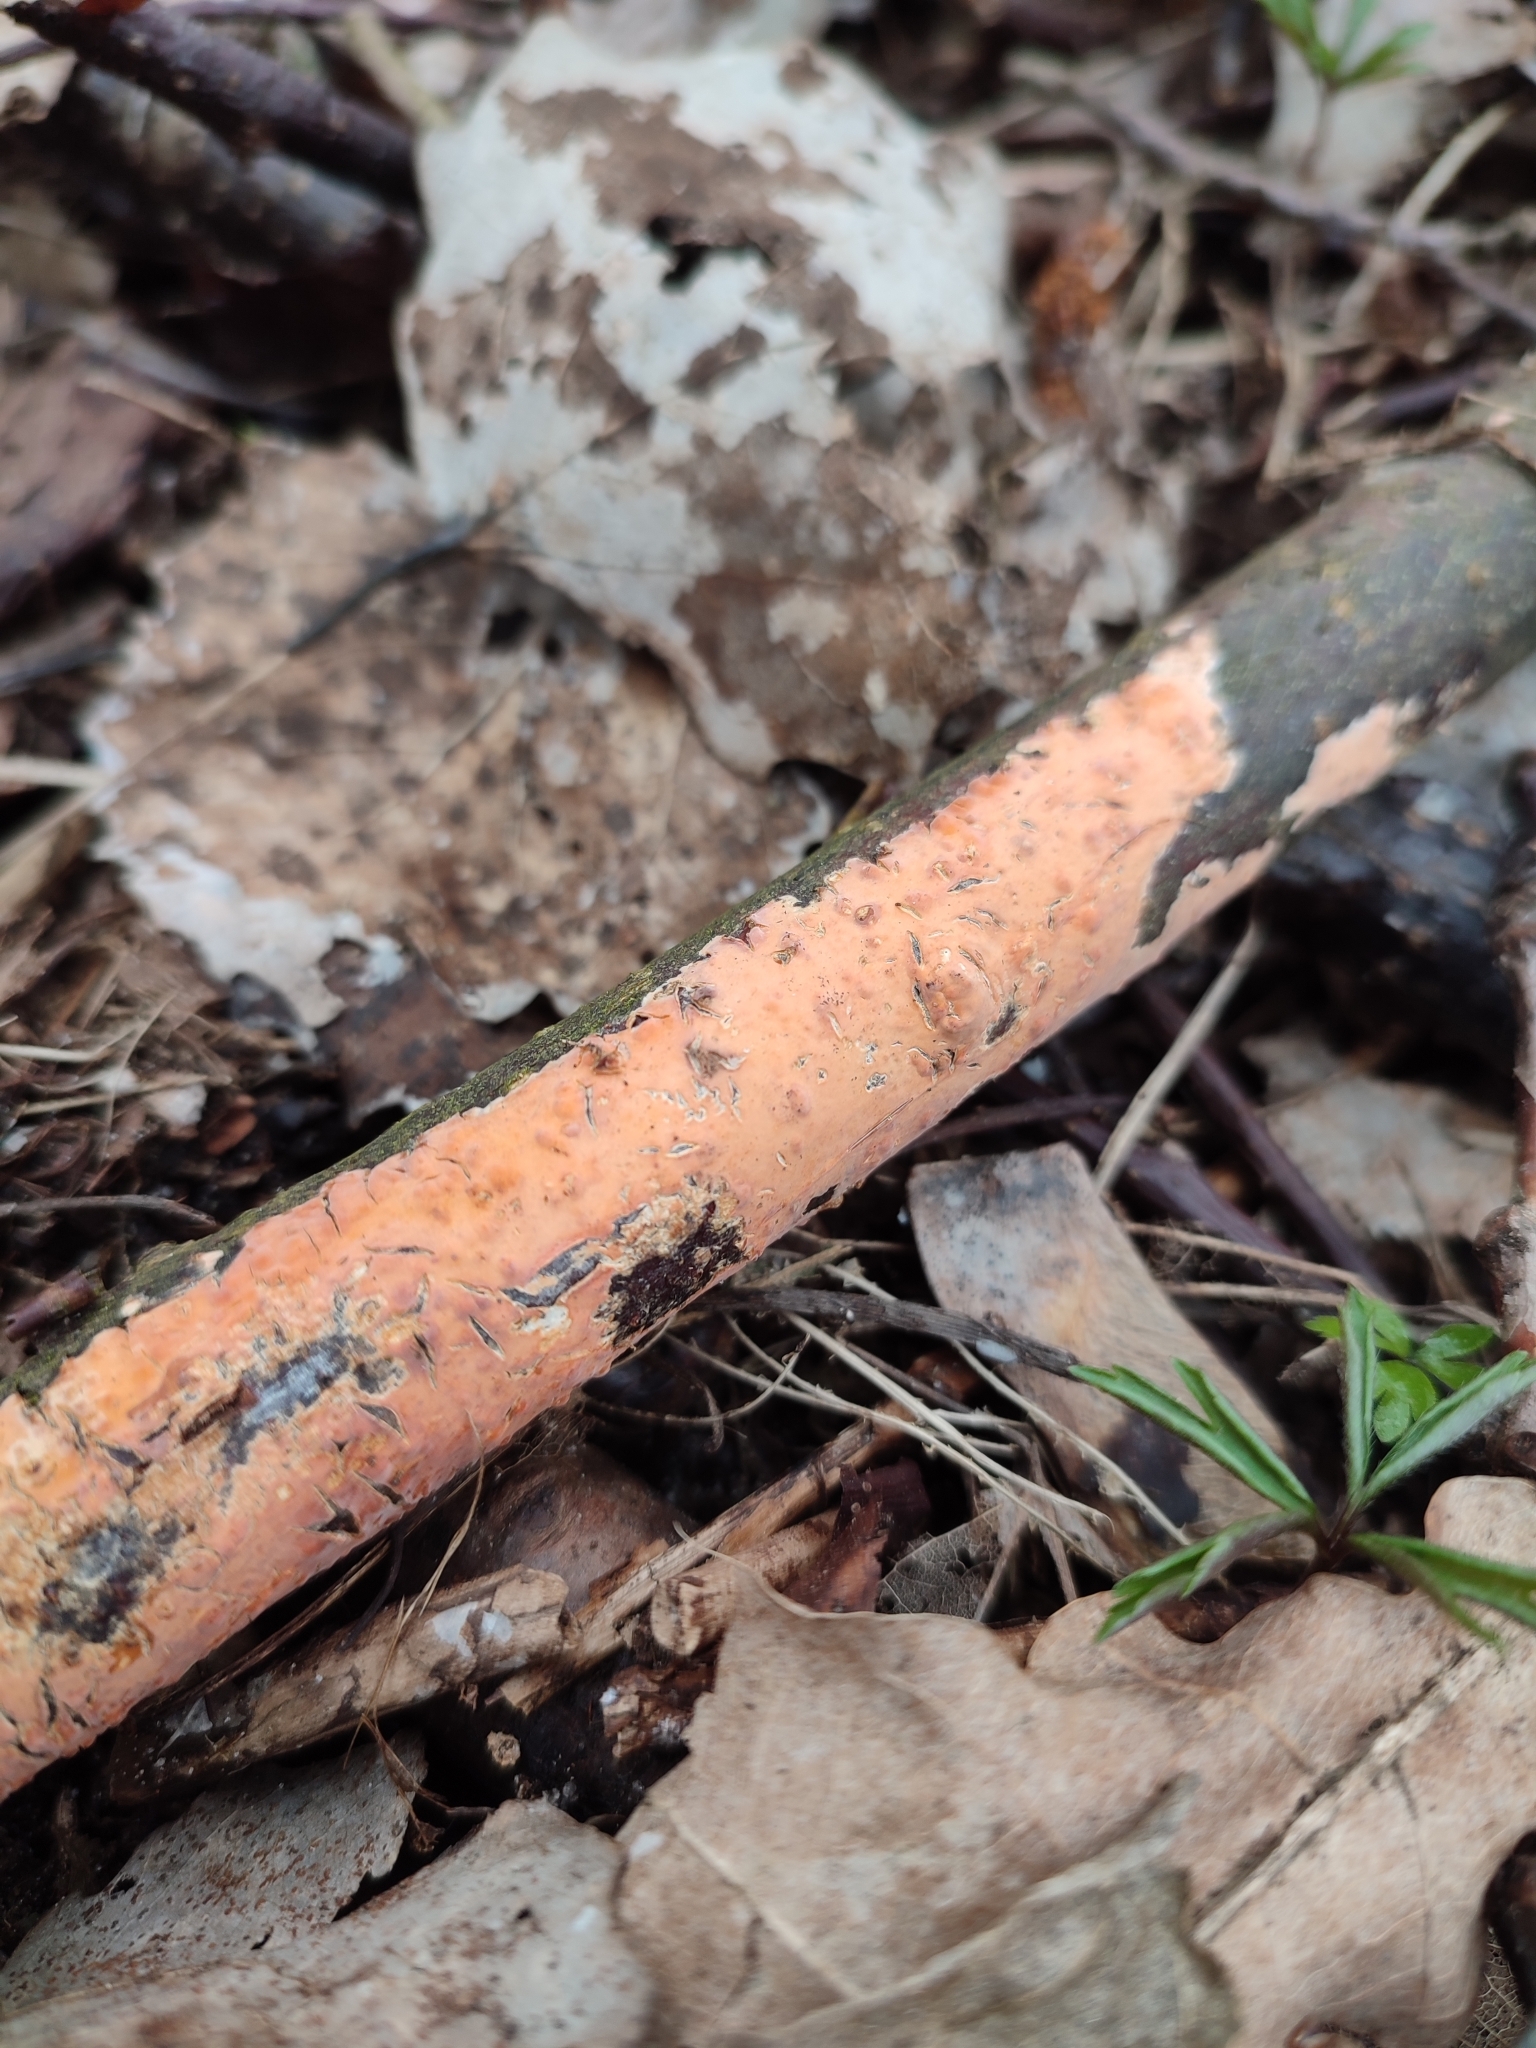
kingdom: Fungi
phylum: Basidiomycota
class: Agaricomycetes
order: Russulales
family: Peniophoraceae
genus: Peniophora
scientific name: Peniophora incarnata
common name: Rosy crust
